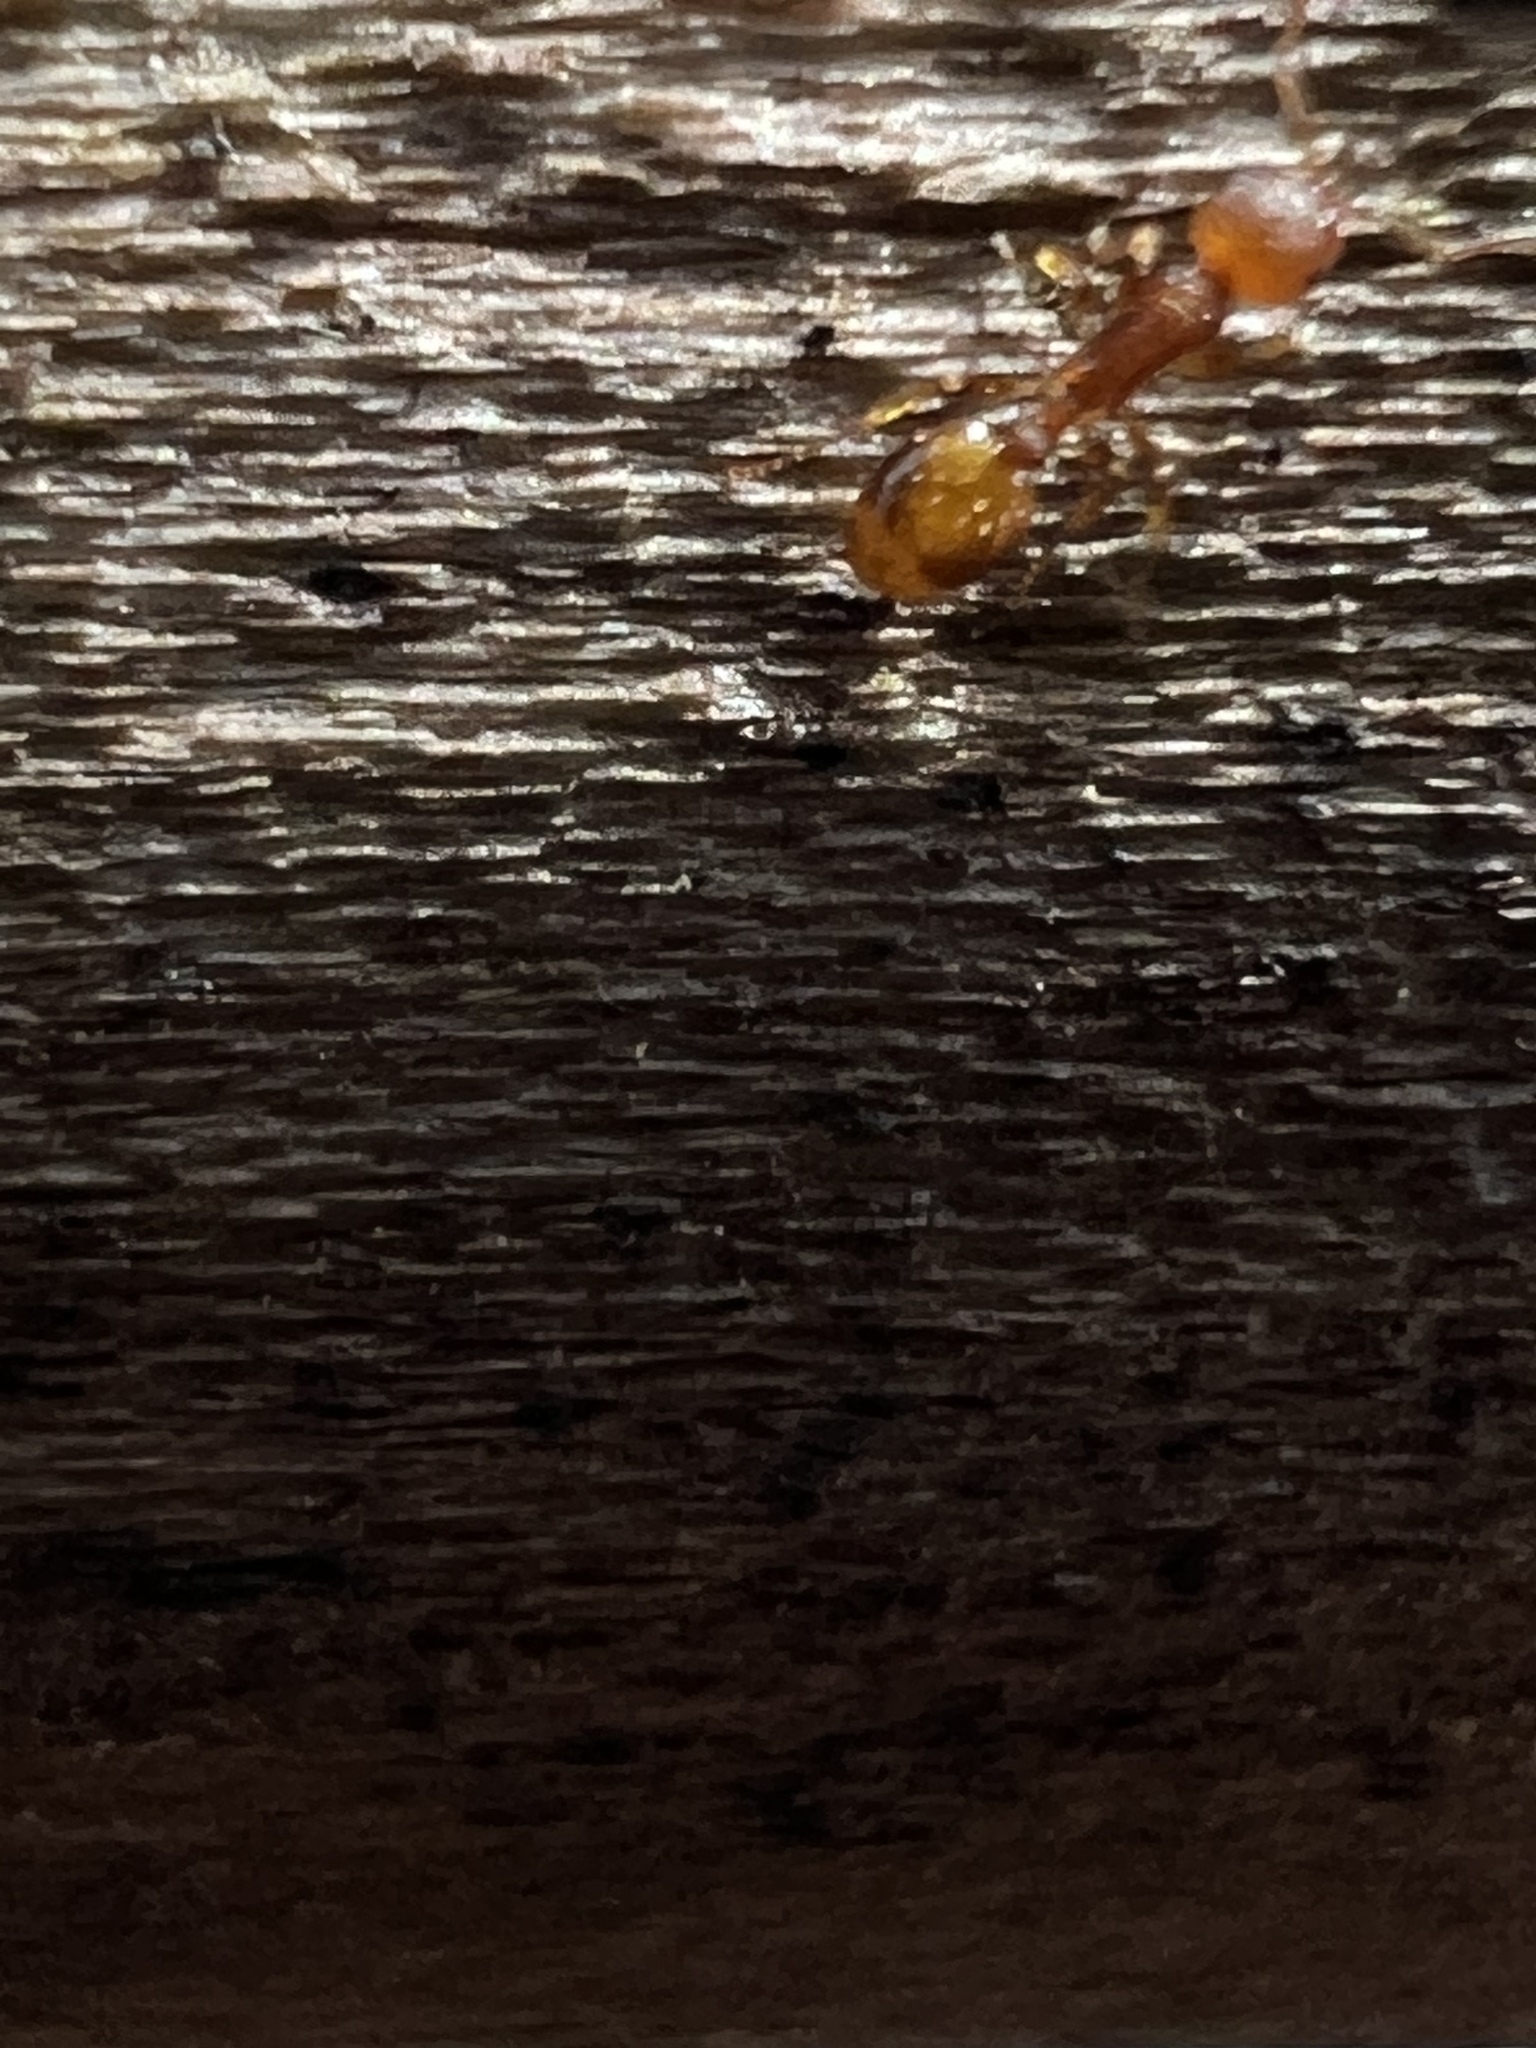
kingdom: Animalia
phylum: Arthropoda
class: Insecta
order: Hymenoptera
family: Formicidae
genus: Temnothorax
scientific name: Temnothorax curvispinosus
